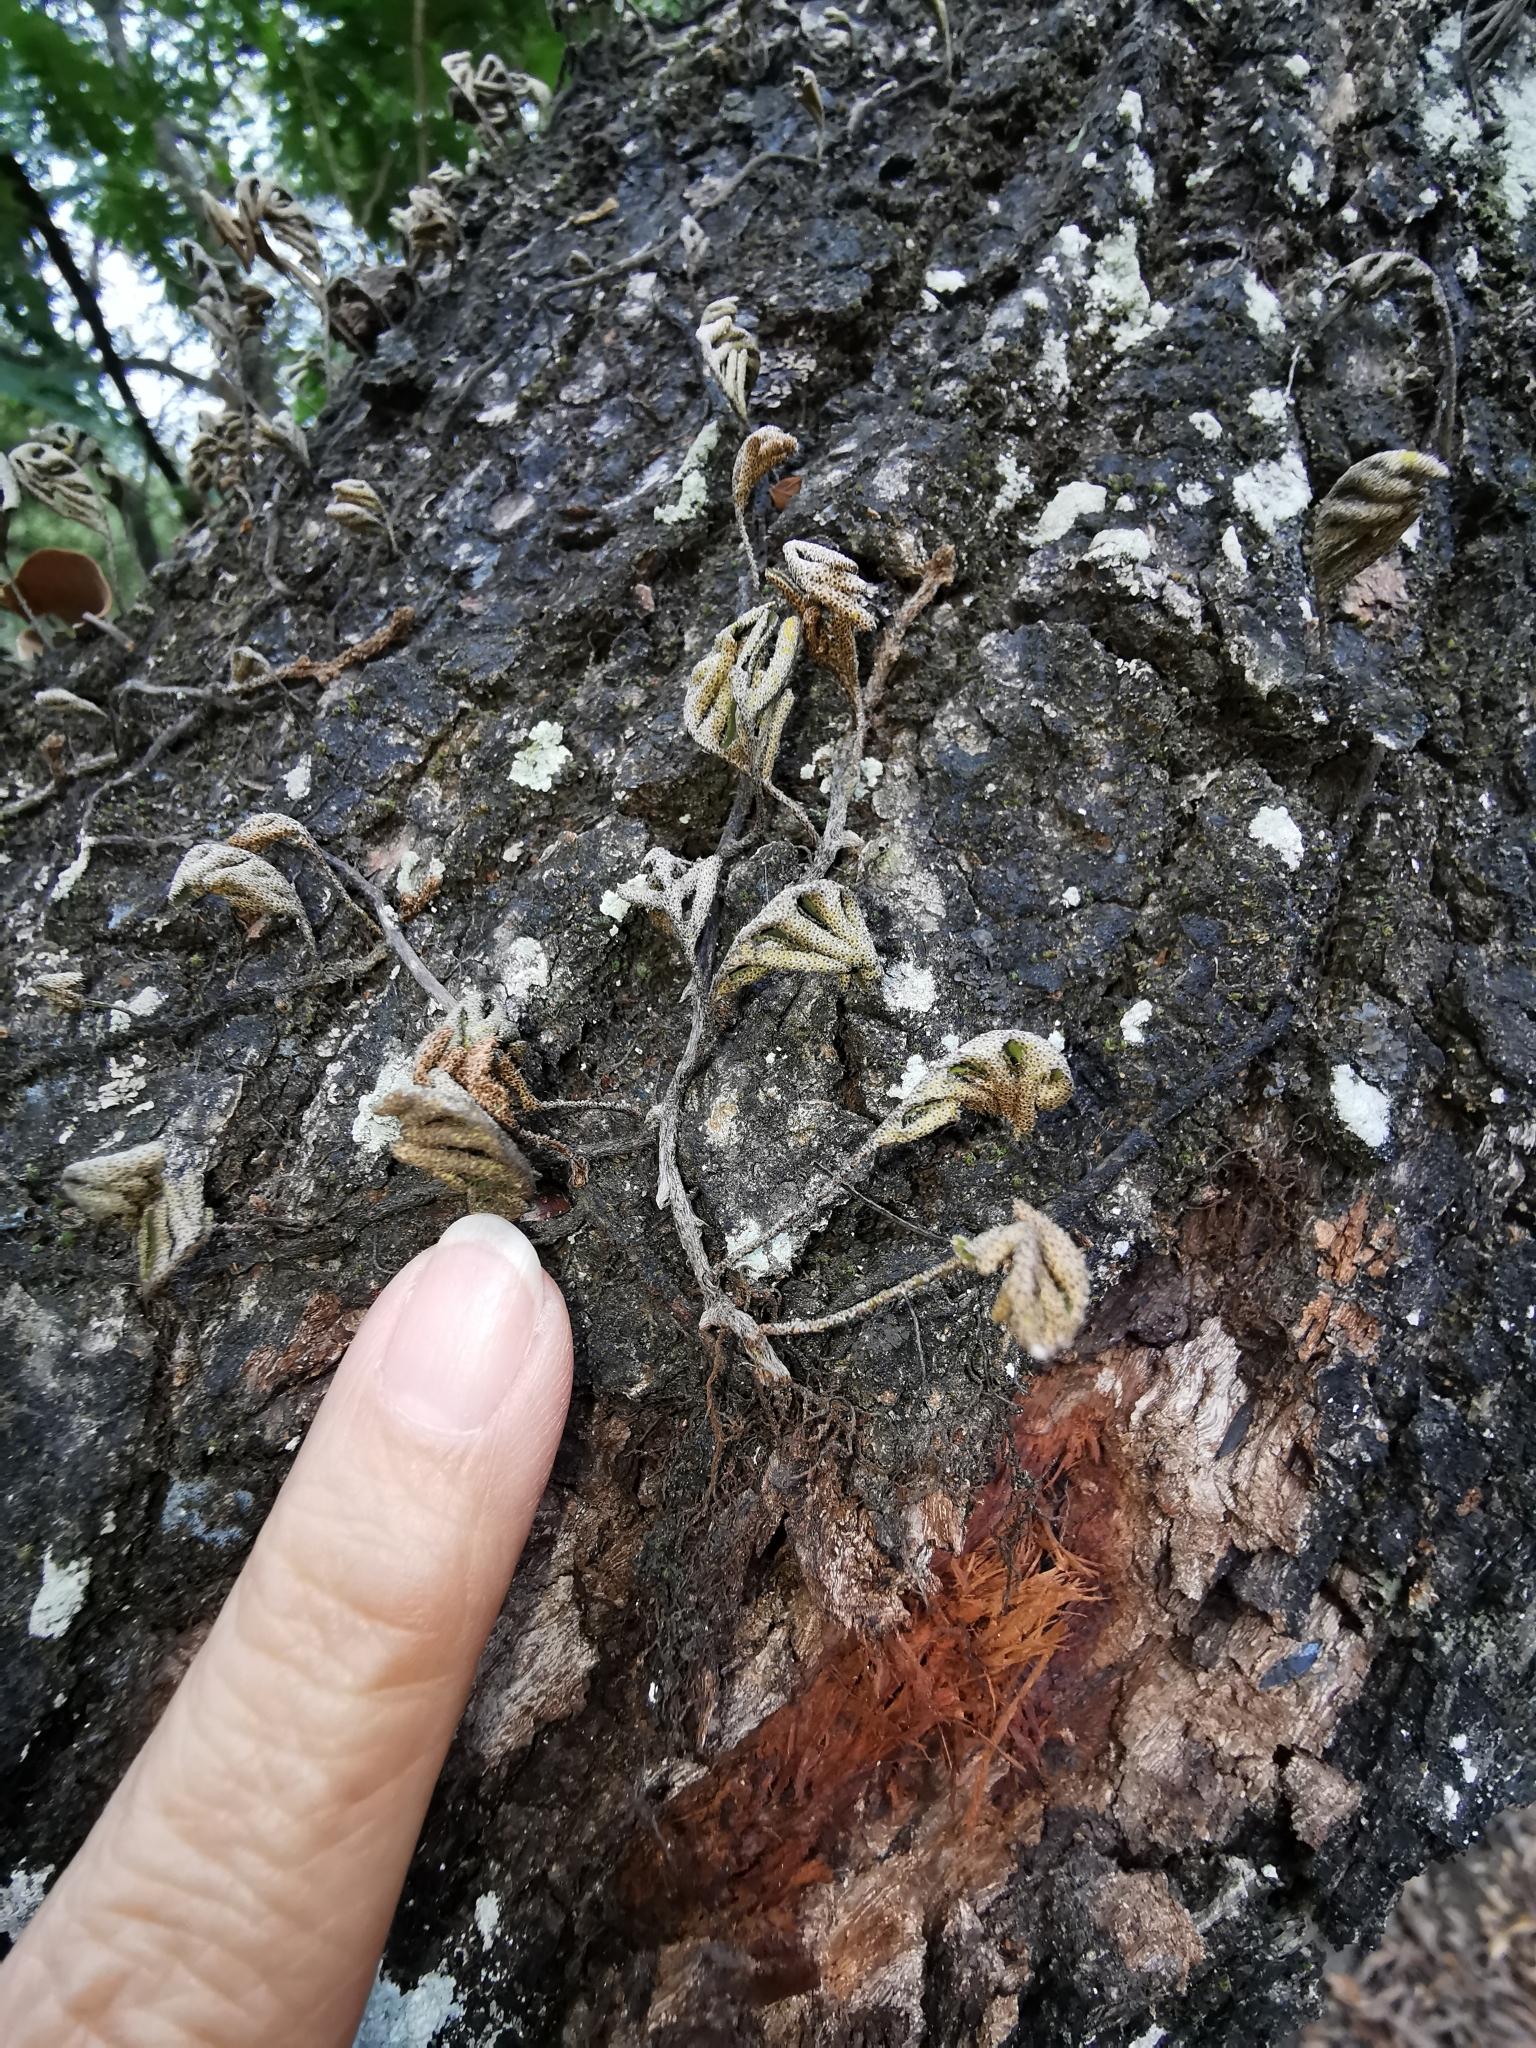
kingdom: Plantae
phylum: Tracheophyta
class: Polypodiopsida
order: Polypodiales
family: Polypodiaceae
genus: Pleopeltis
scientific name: Pleopeltis michauxiana
